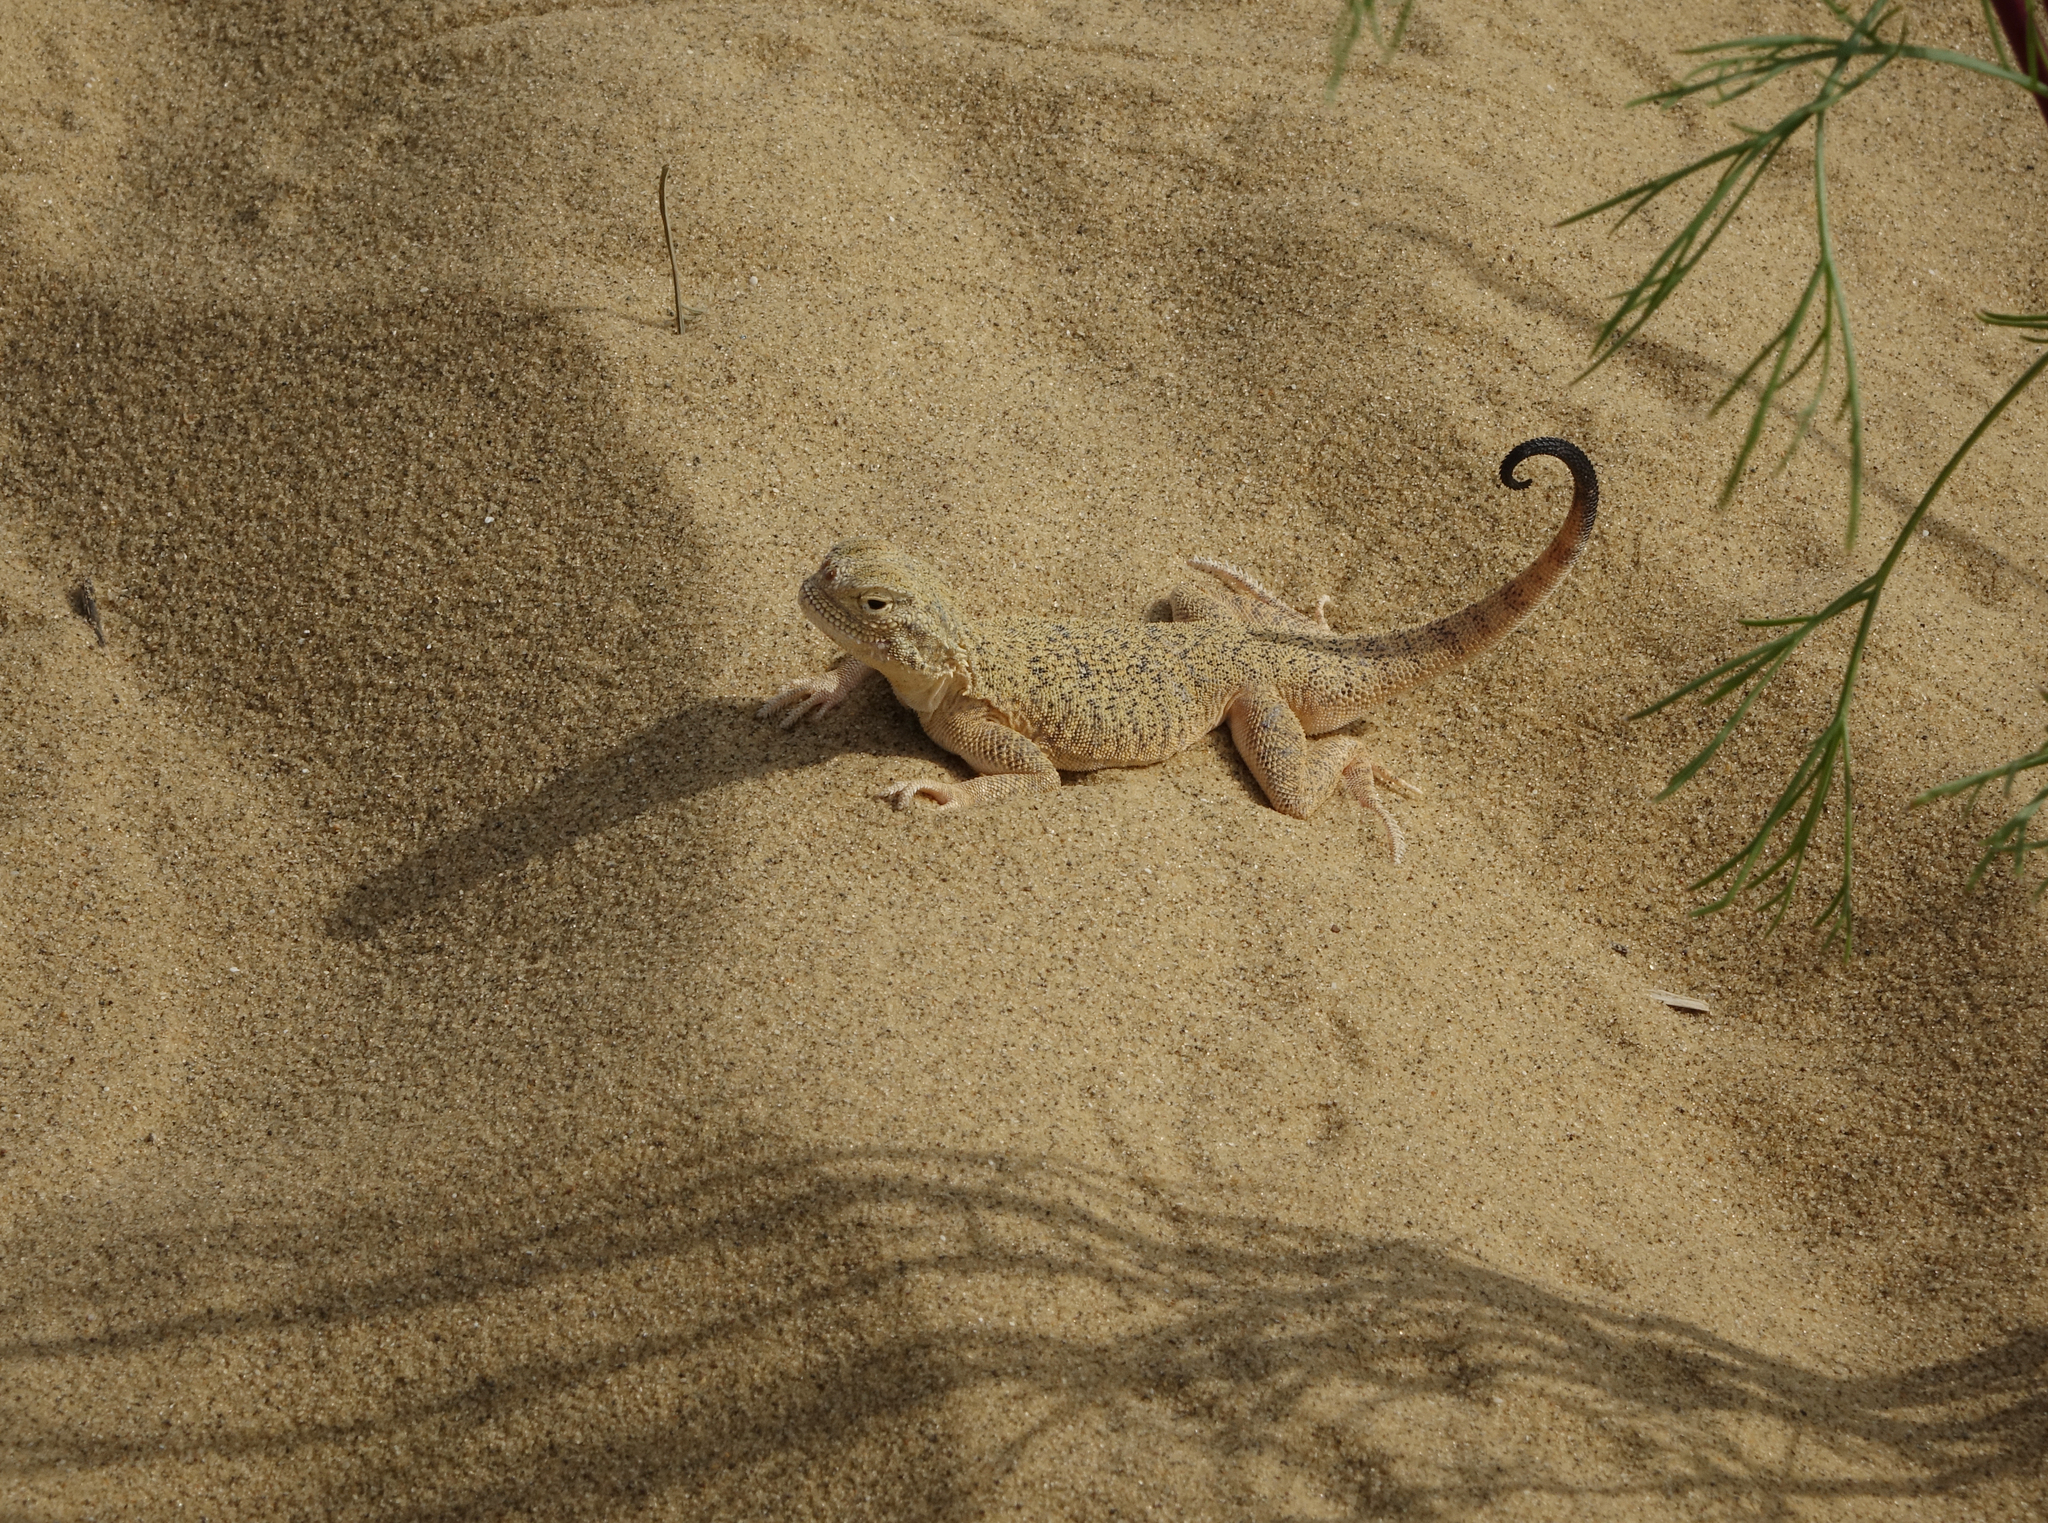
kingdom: Animalia
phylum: Chordata
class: Squamata
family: Agamidae
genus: Phrynocephalus
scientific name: Phrynocephalus mystaceus
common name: Secret toadhead agama
